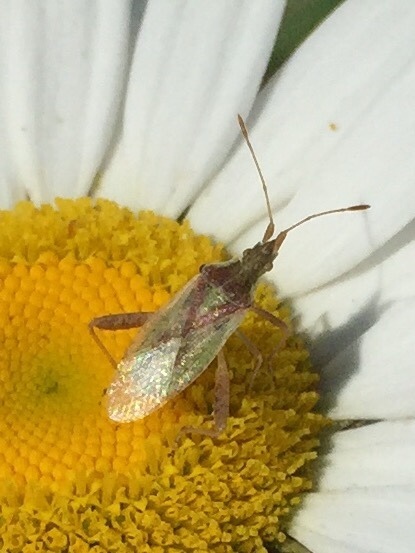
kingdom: Animalia
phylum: Arthropoda
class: Insecta
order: Hemiptera
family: Rhopalidae
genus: Harmostes
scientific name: Harmostes reflexulus
